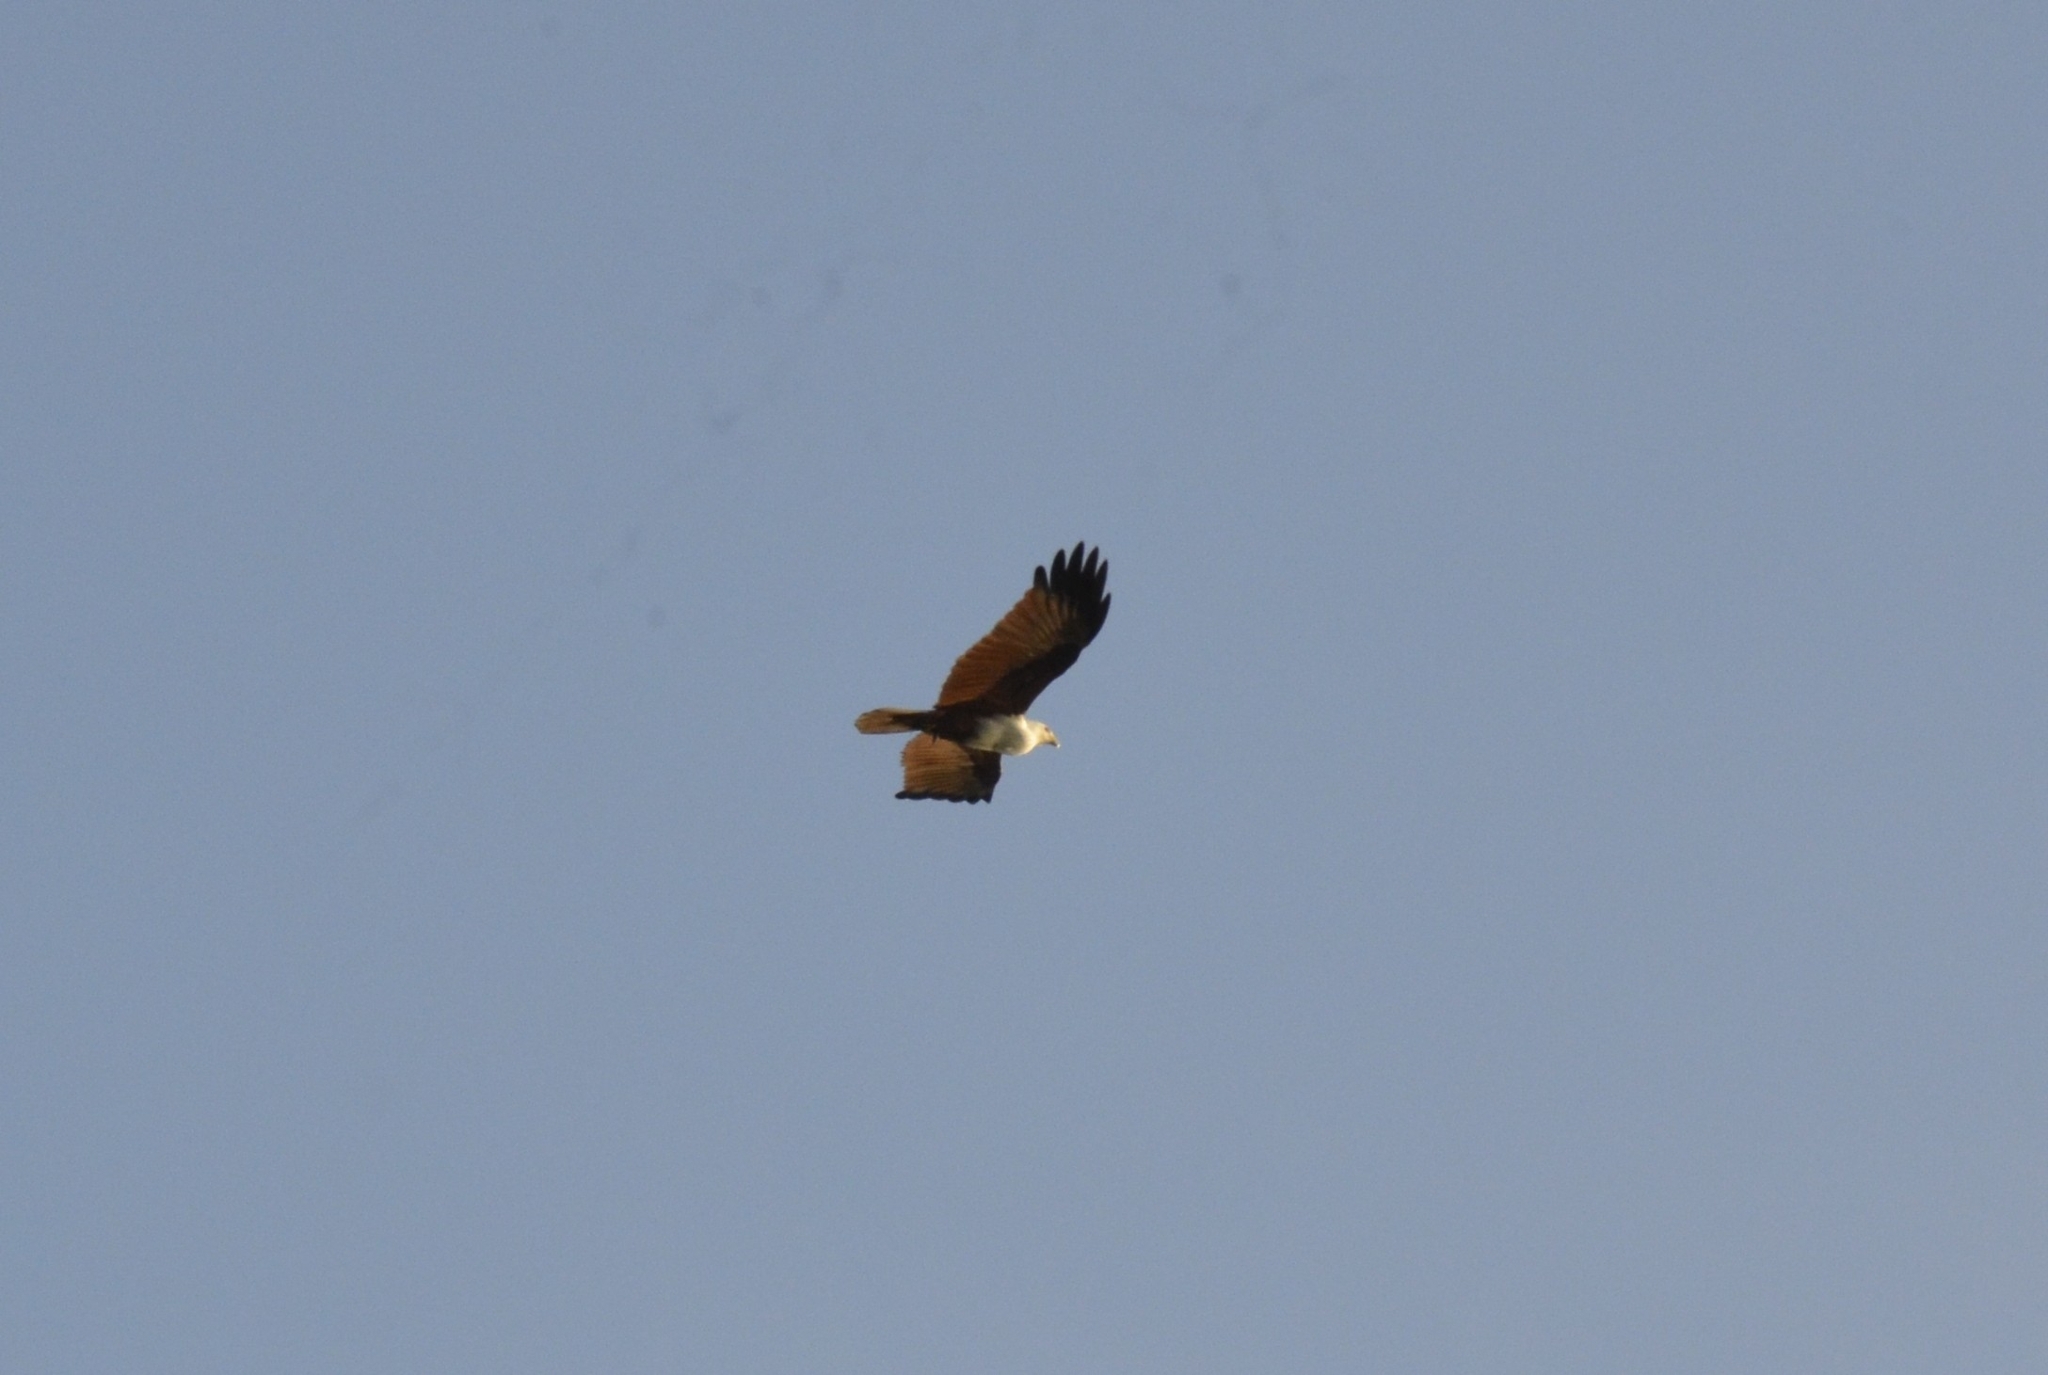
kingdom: Animalia
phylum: Chordata
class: Aves
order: Accipitriformes
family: Accipitridae
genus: Haliastur
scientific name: Haliastur indus
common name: Brahminy kite
